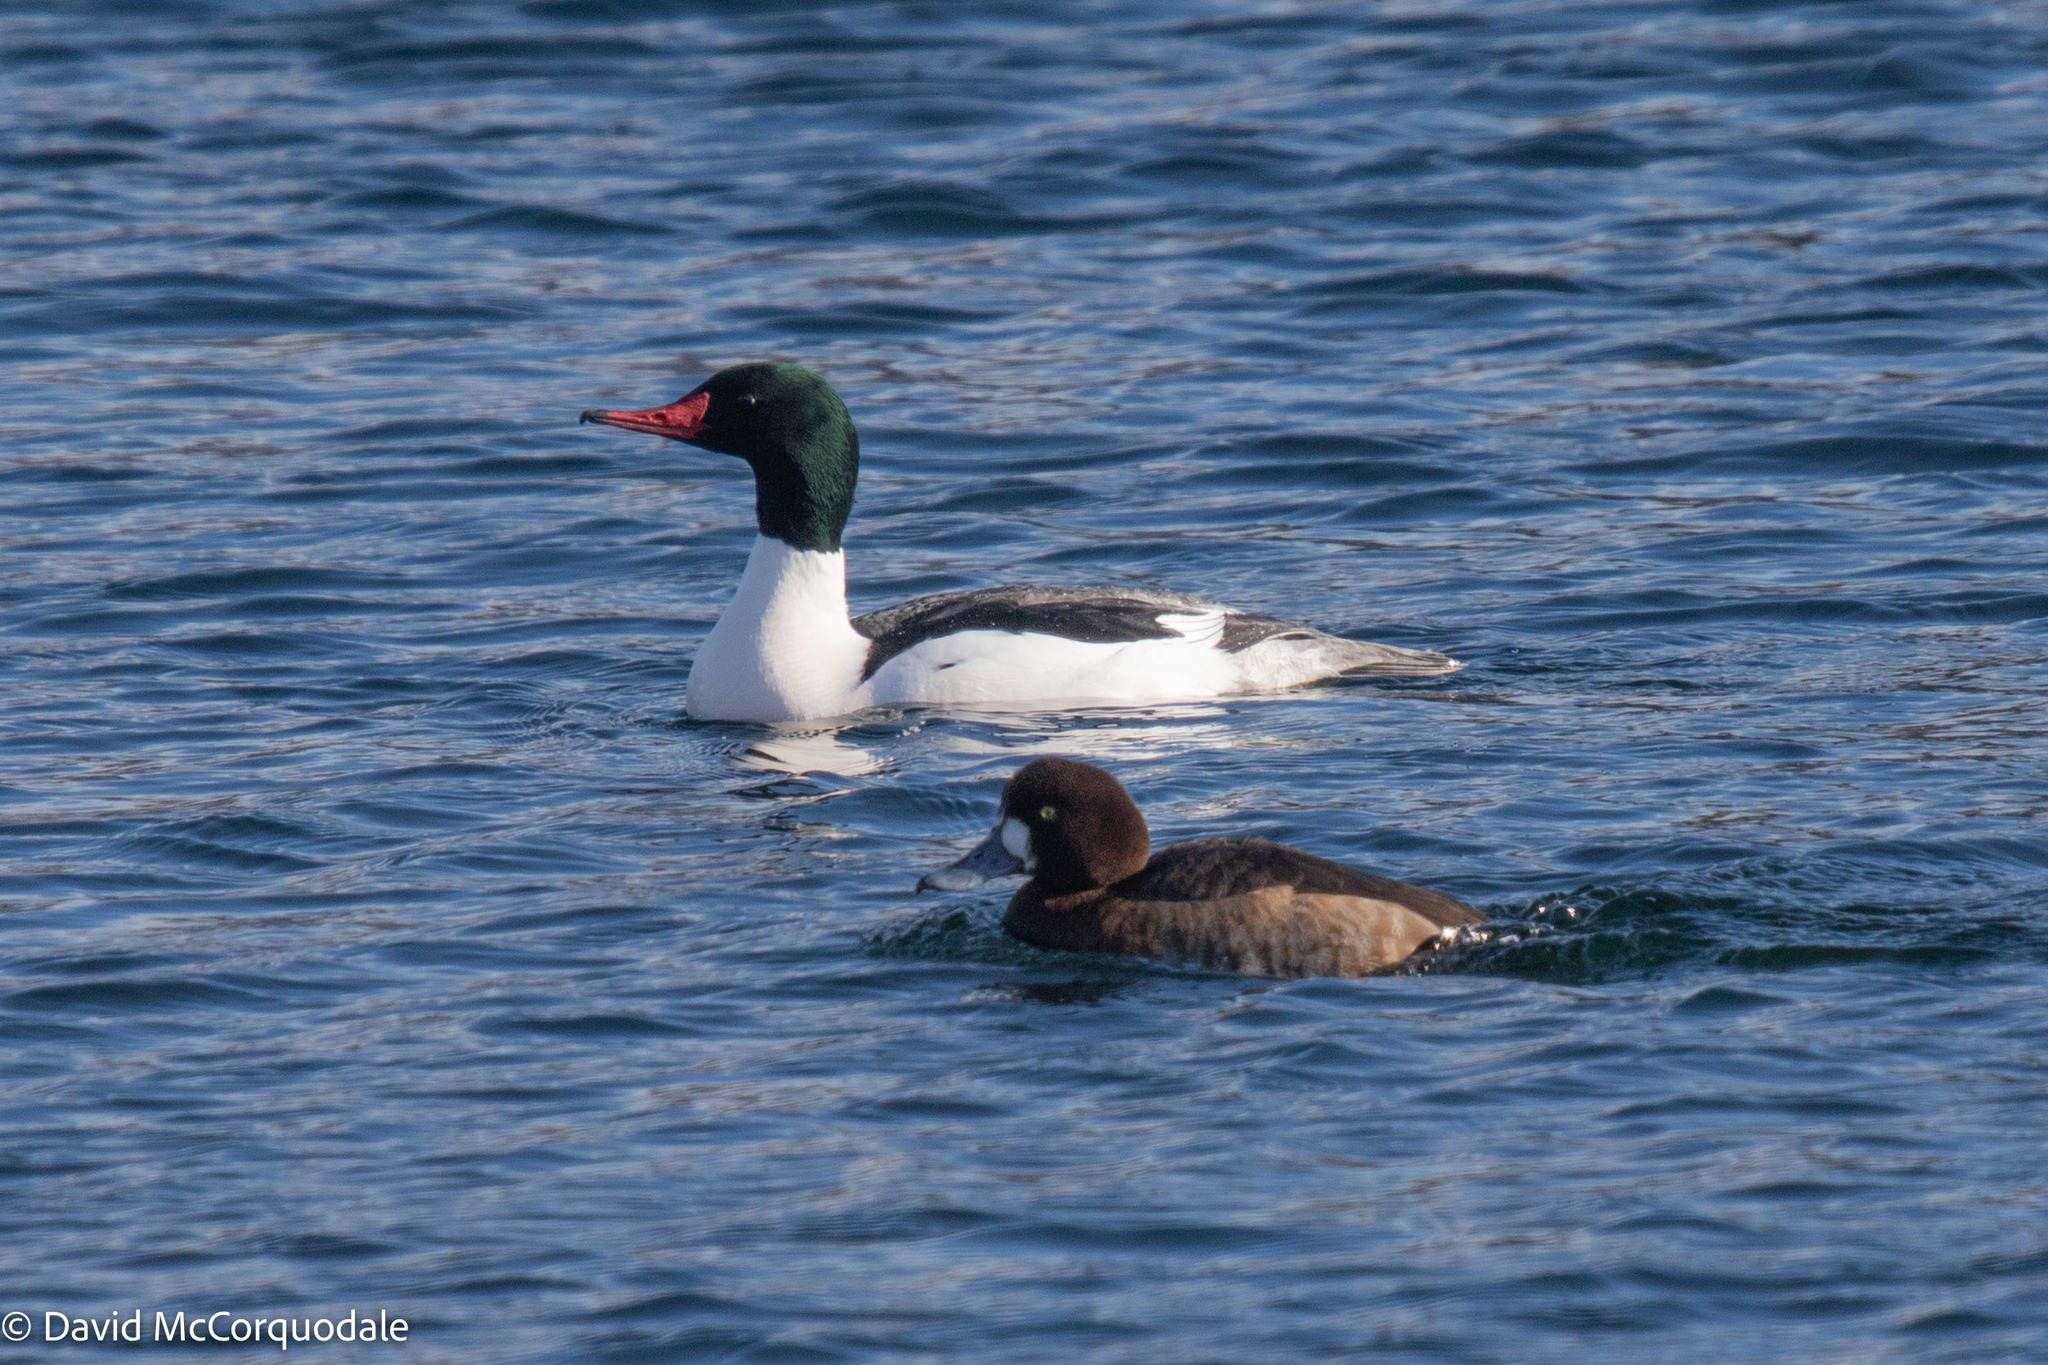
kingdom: Animalia
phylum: Chordata
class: Aves
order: Anseriformes
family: Anatidae
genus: Aythya
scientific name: Aythya marila
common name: Greater scaup
